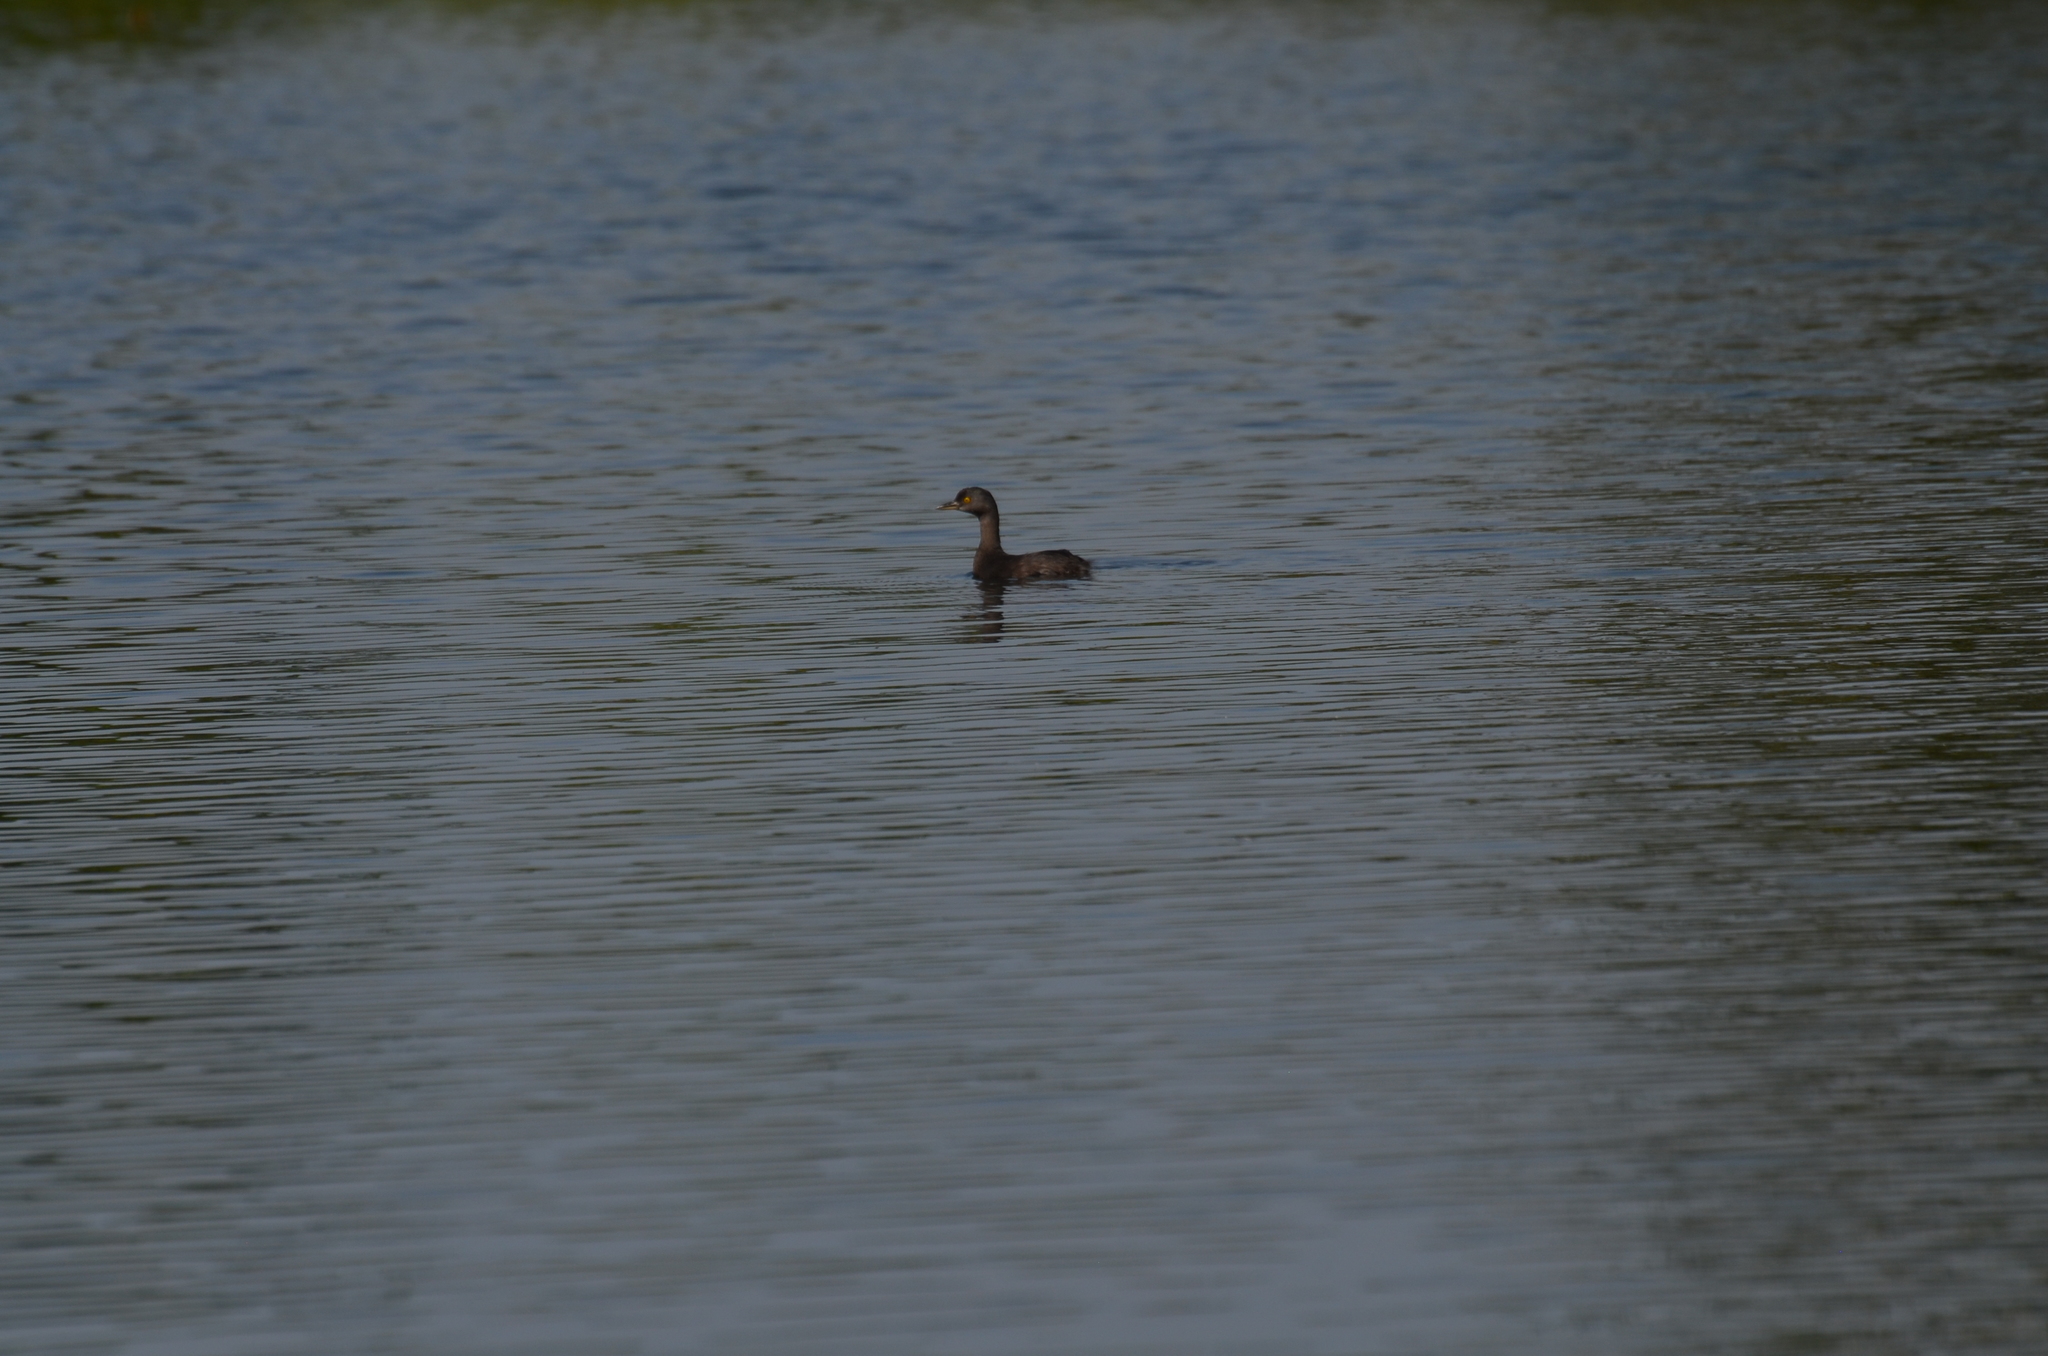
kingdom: Animalia
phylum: Chordata
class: Aves
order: Podicipediformes
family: Podicipedidae
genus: Tachybaptus
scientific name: Tachybaptus dominicus
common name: Least grebe
